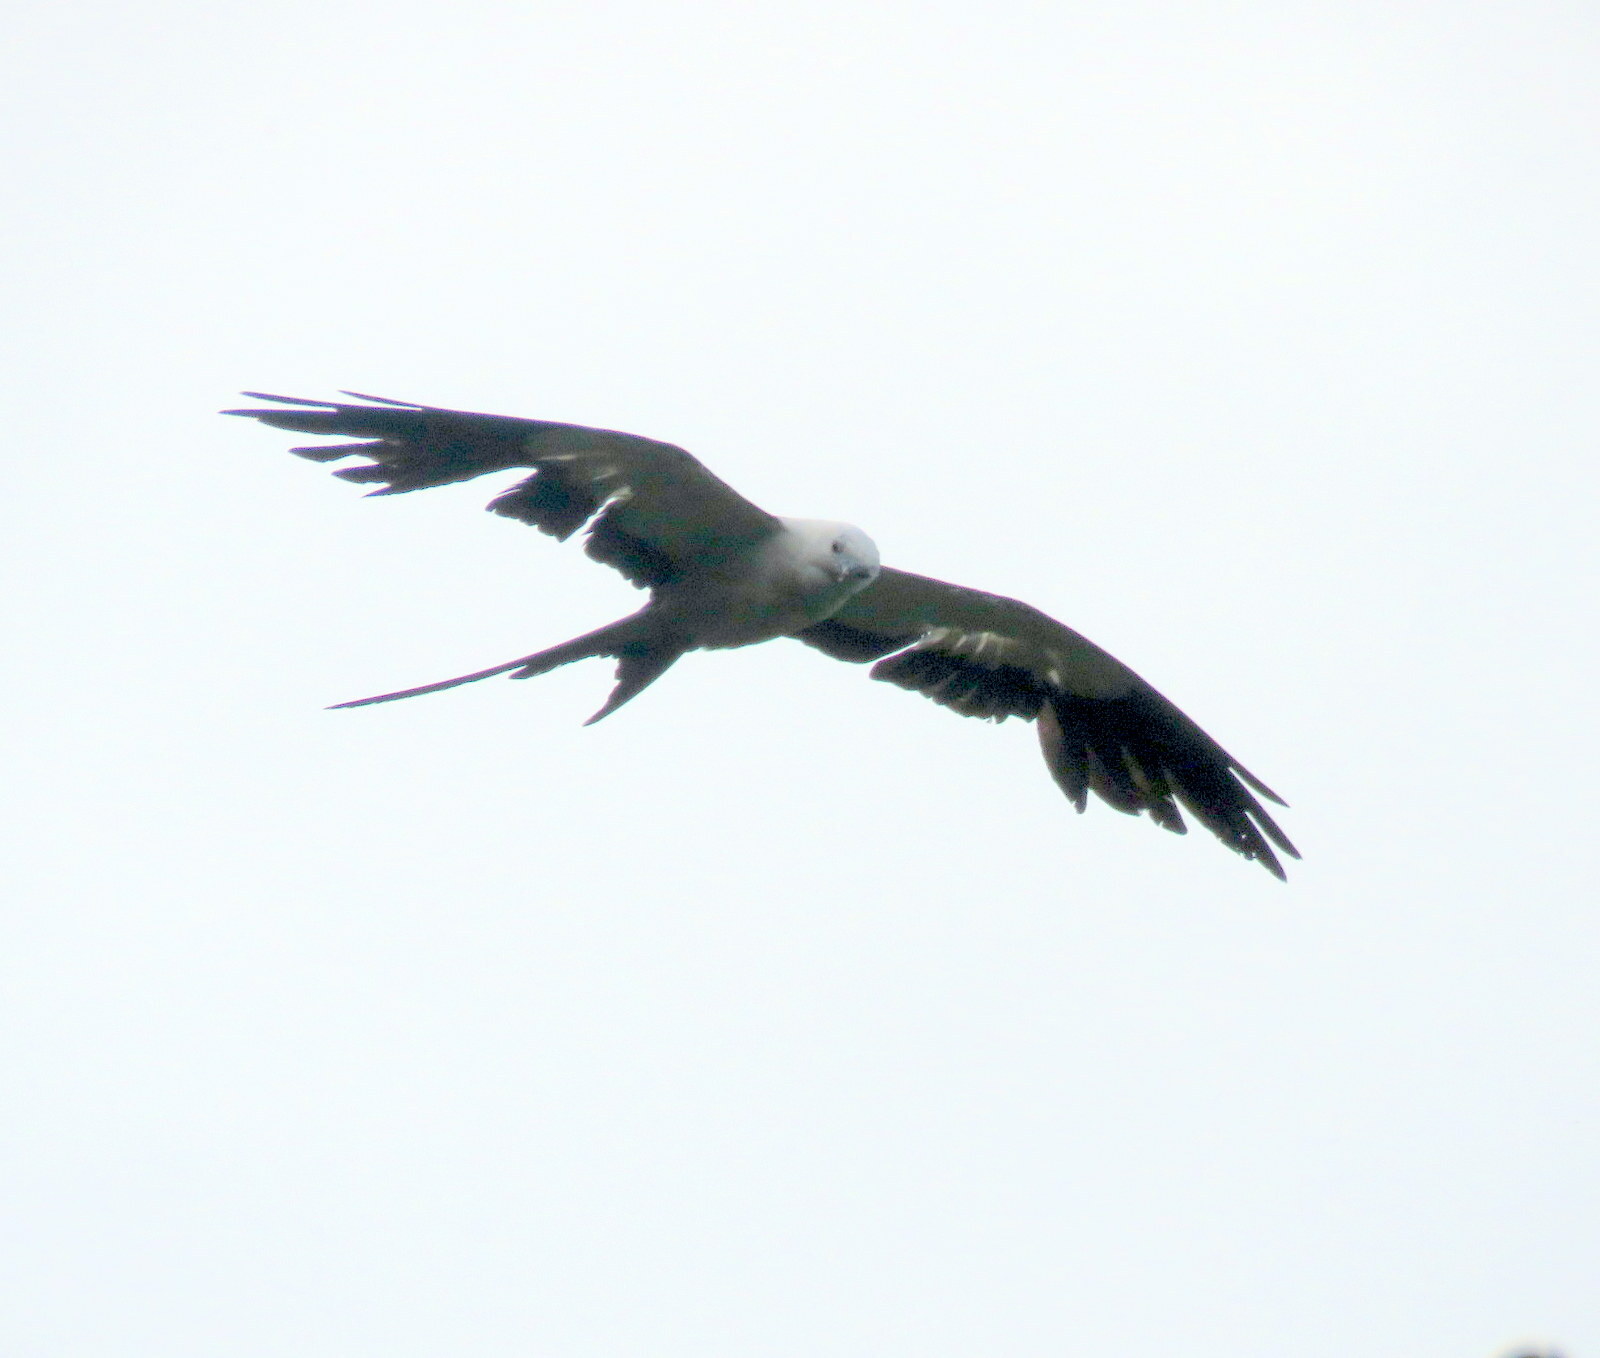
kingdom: Animalia
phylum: Chordata
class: Aves
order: Accipitriformes
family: Accipitridae
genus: Elanoides
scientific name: Elanoides forficatus
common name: Swallow-tailed kite
